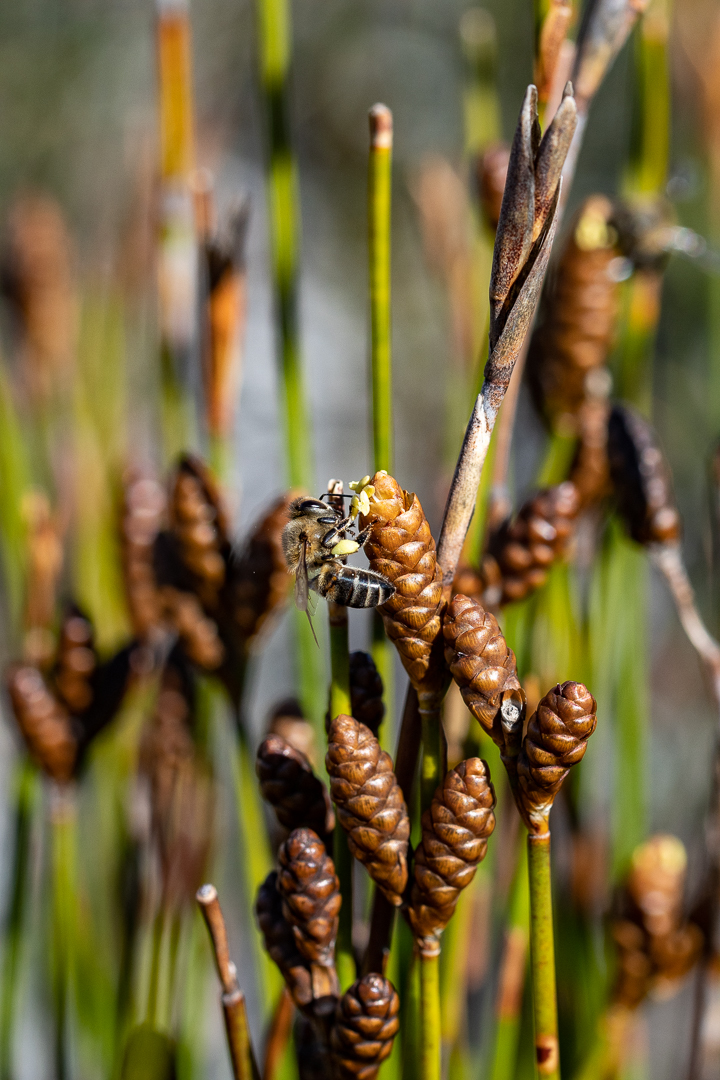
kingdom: Animalia
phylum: Arthropoda
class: Insecta
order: Hymenoptera
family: Apidae
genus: Apis
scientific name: Apis mellifera
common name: Honey bee
